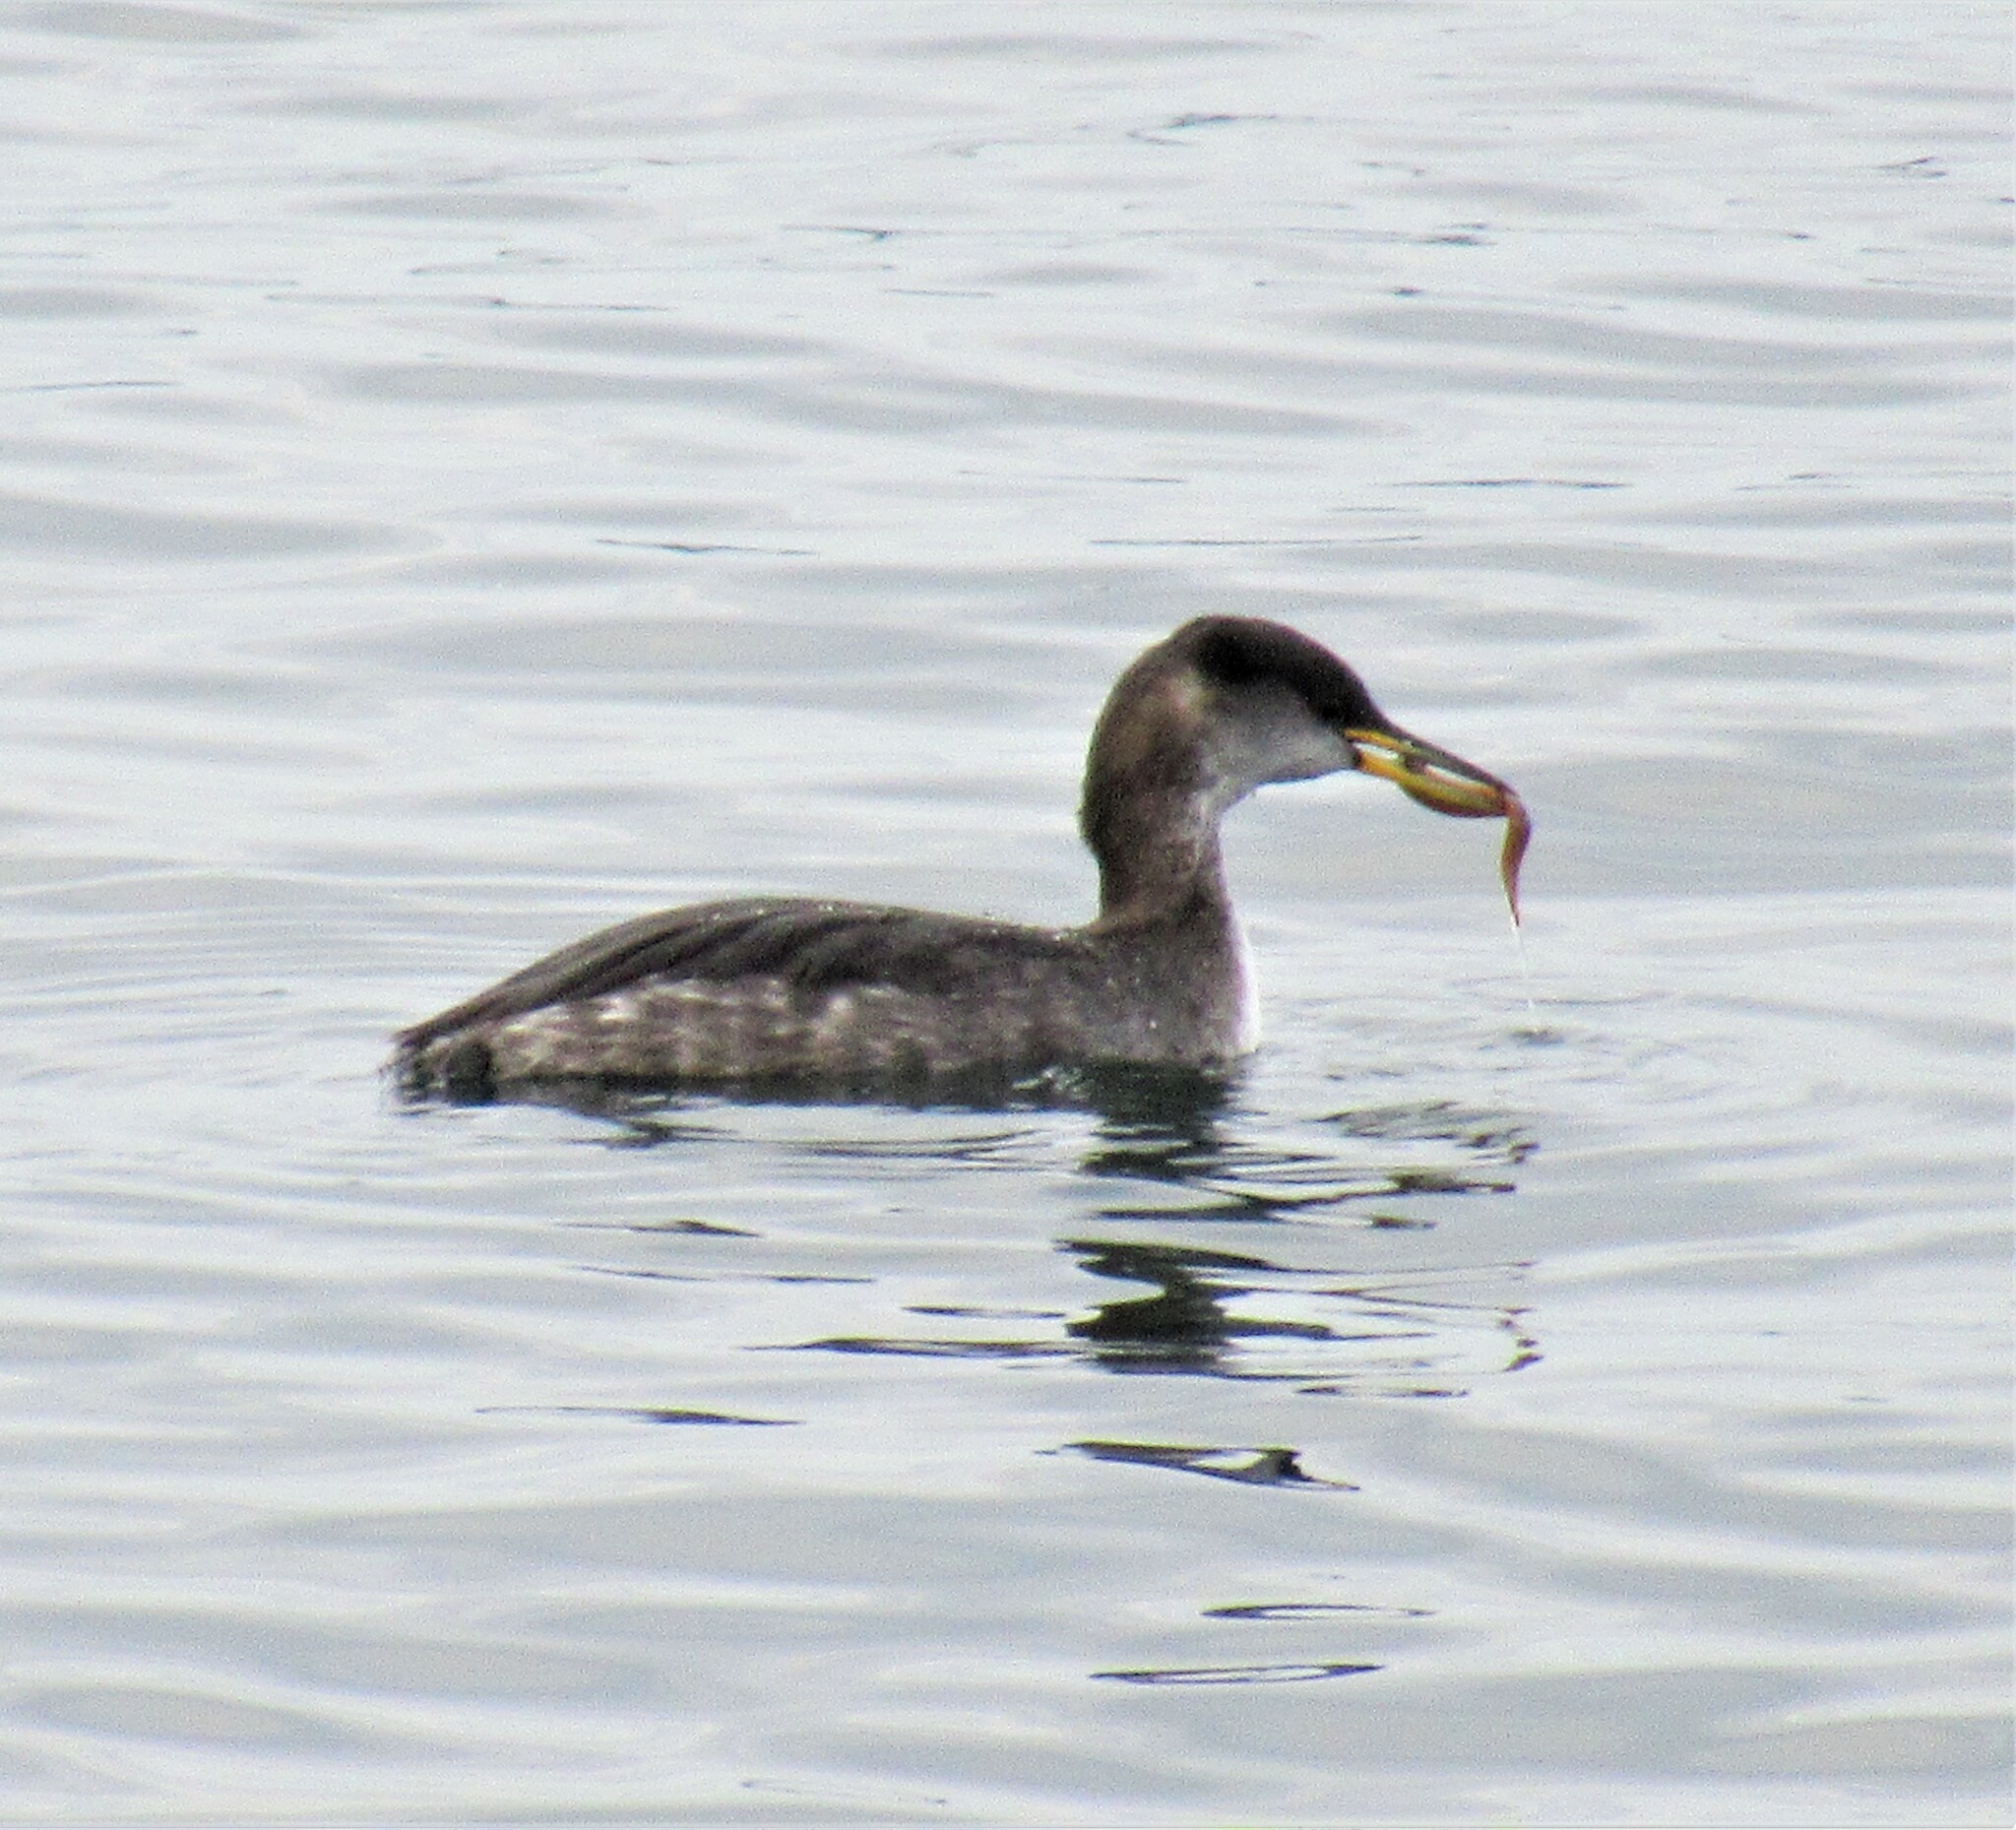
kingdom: Animalia
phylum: Chordata
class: Aves
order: Podicipediformes
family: Podicipedidae
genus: Podiceps
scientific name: Podiceps grisegena
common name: Red-necked grebe
